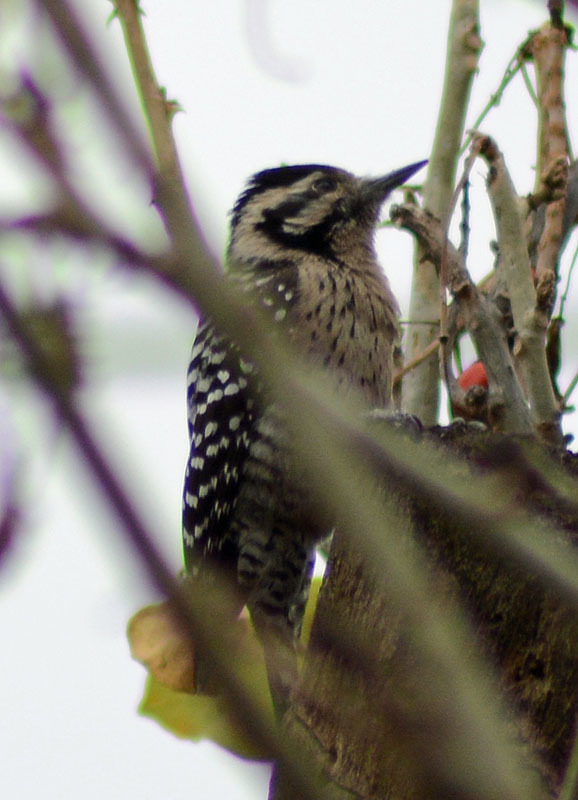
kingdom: Animalia
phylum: Chordata
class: Aves
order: Piciformes
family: Picidae
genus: Dryobates
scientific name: Dryobates scalaris
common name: Ladder-backed woodpecker
